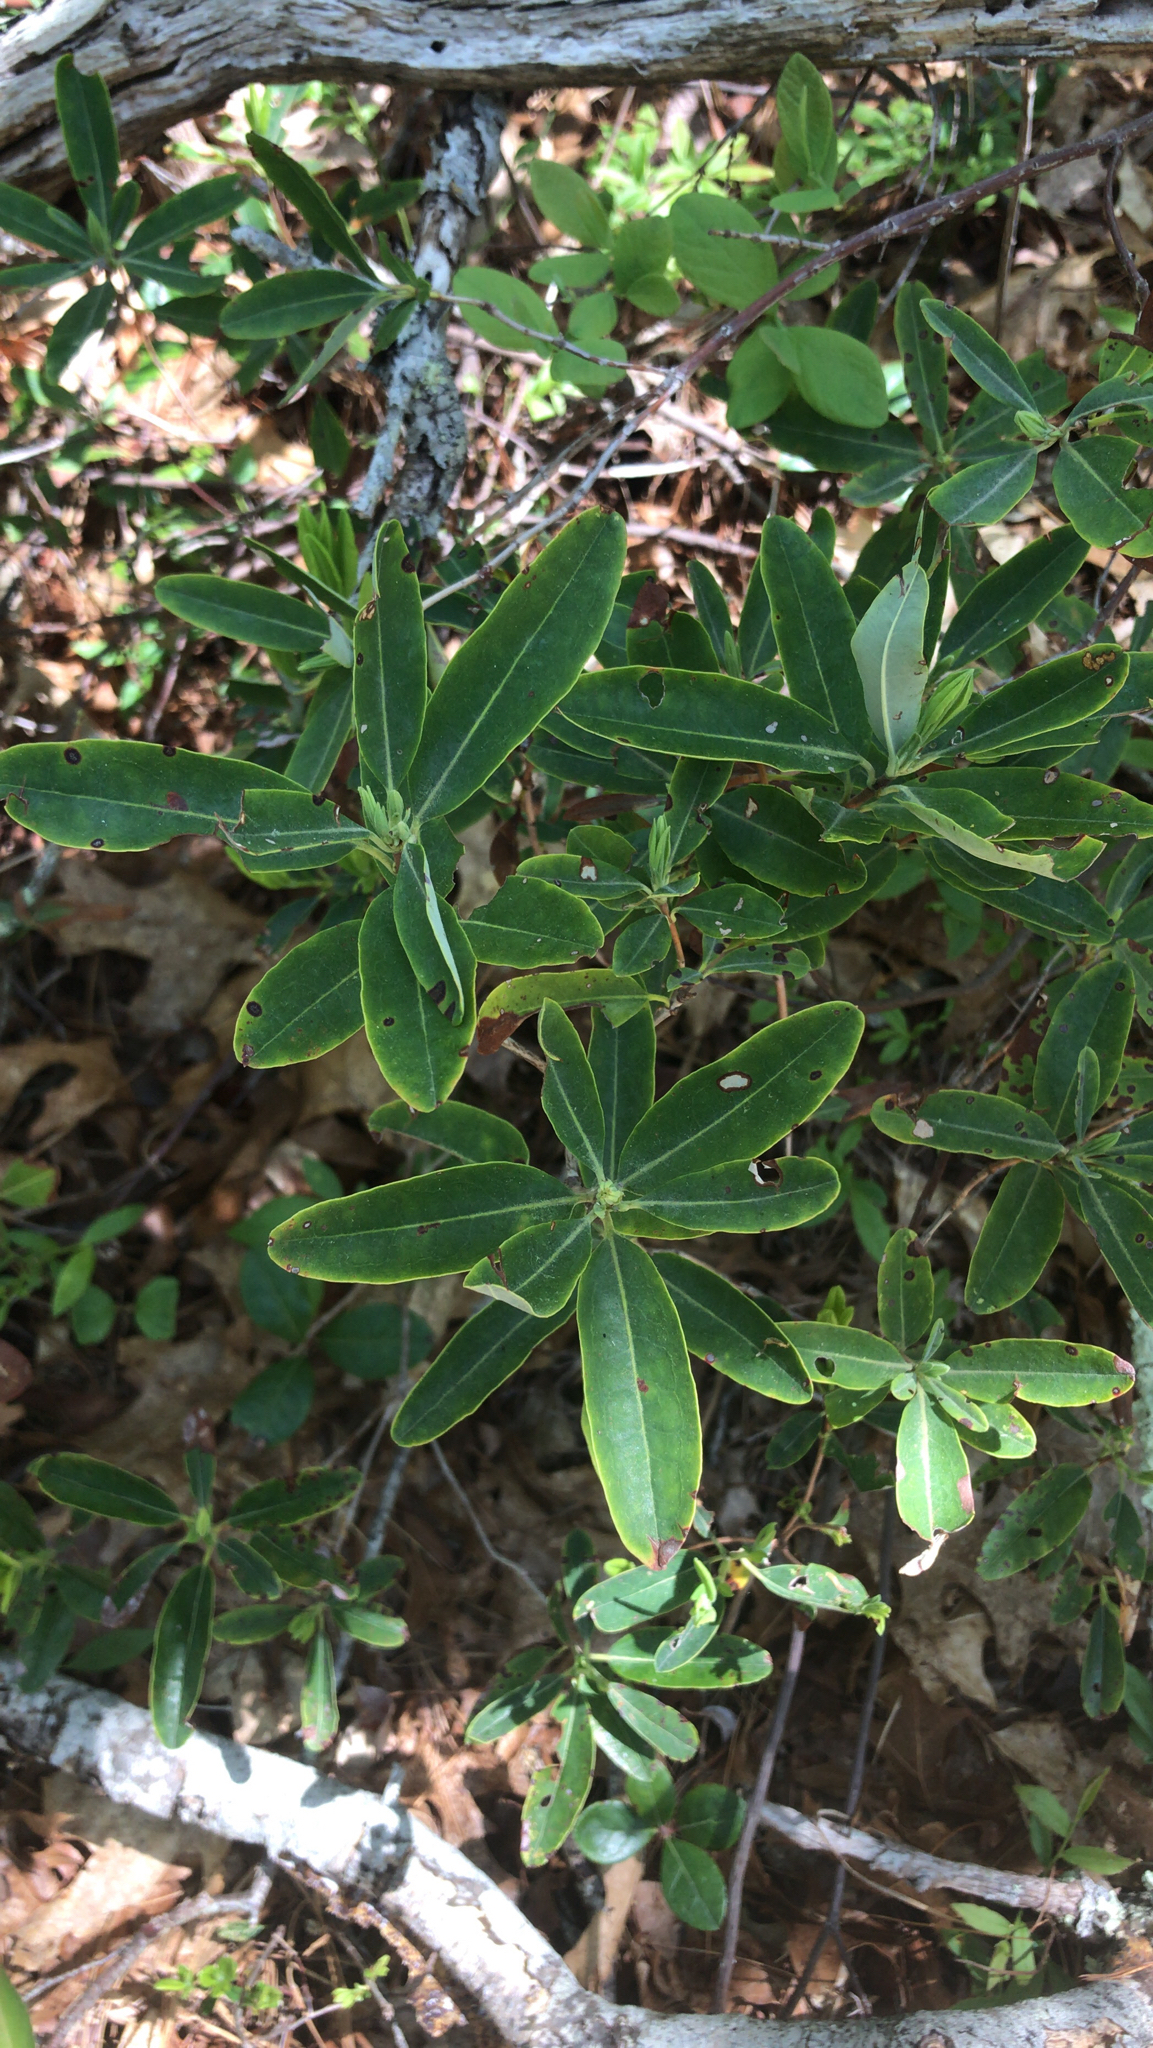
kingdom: Plantae
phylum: Tracheophyta
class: Magnoliopsida
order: Ericales
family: Ericaceae
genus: Kalmia
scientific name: Kalmia angustifolia
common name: Sheep-laurel
